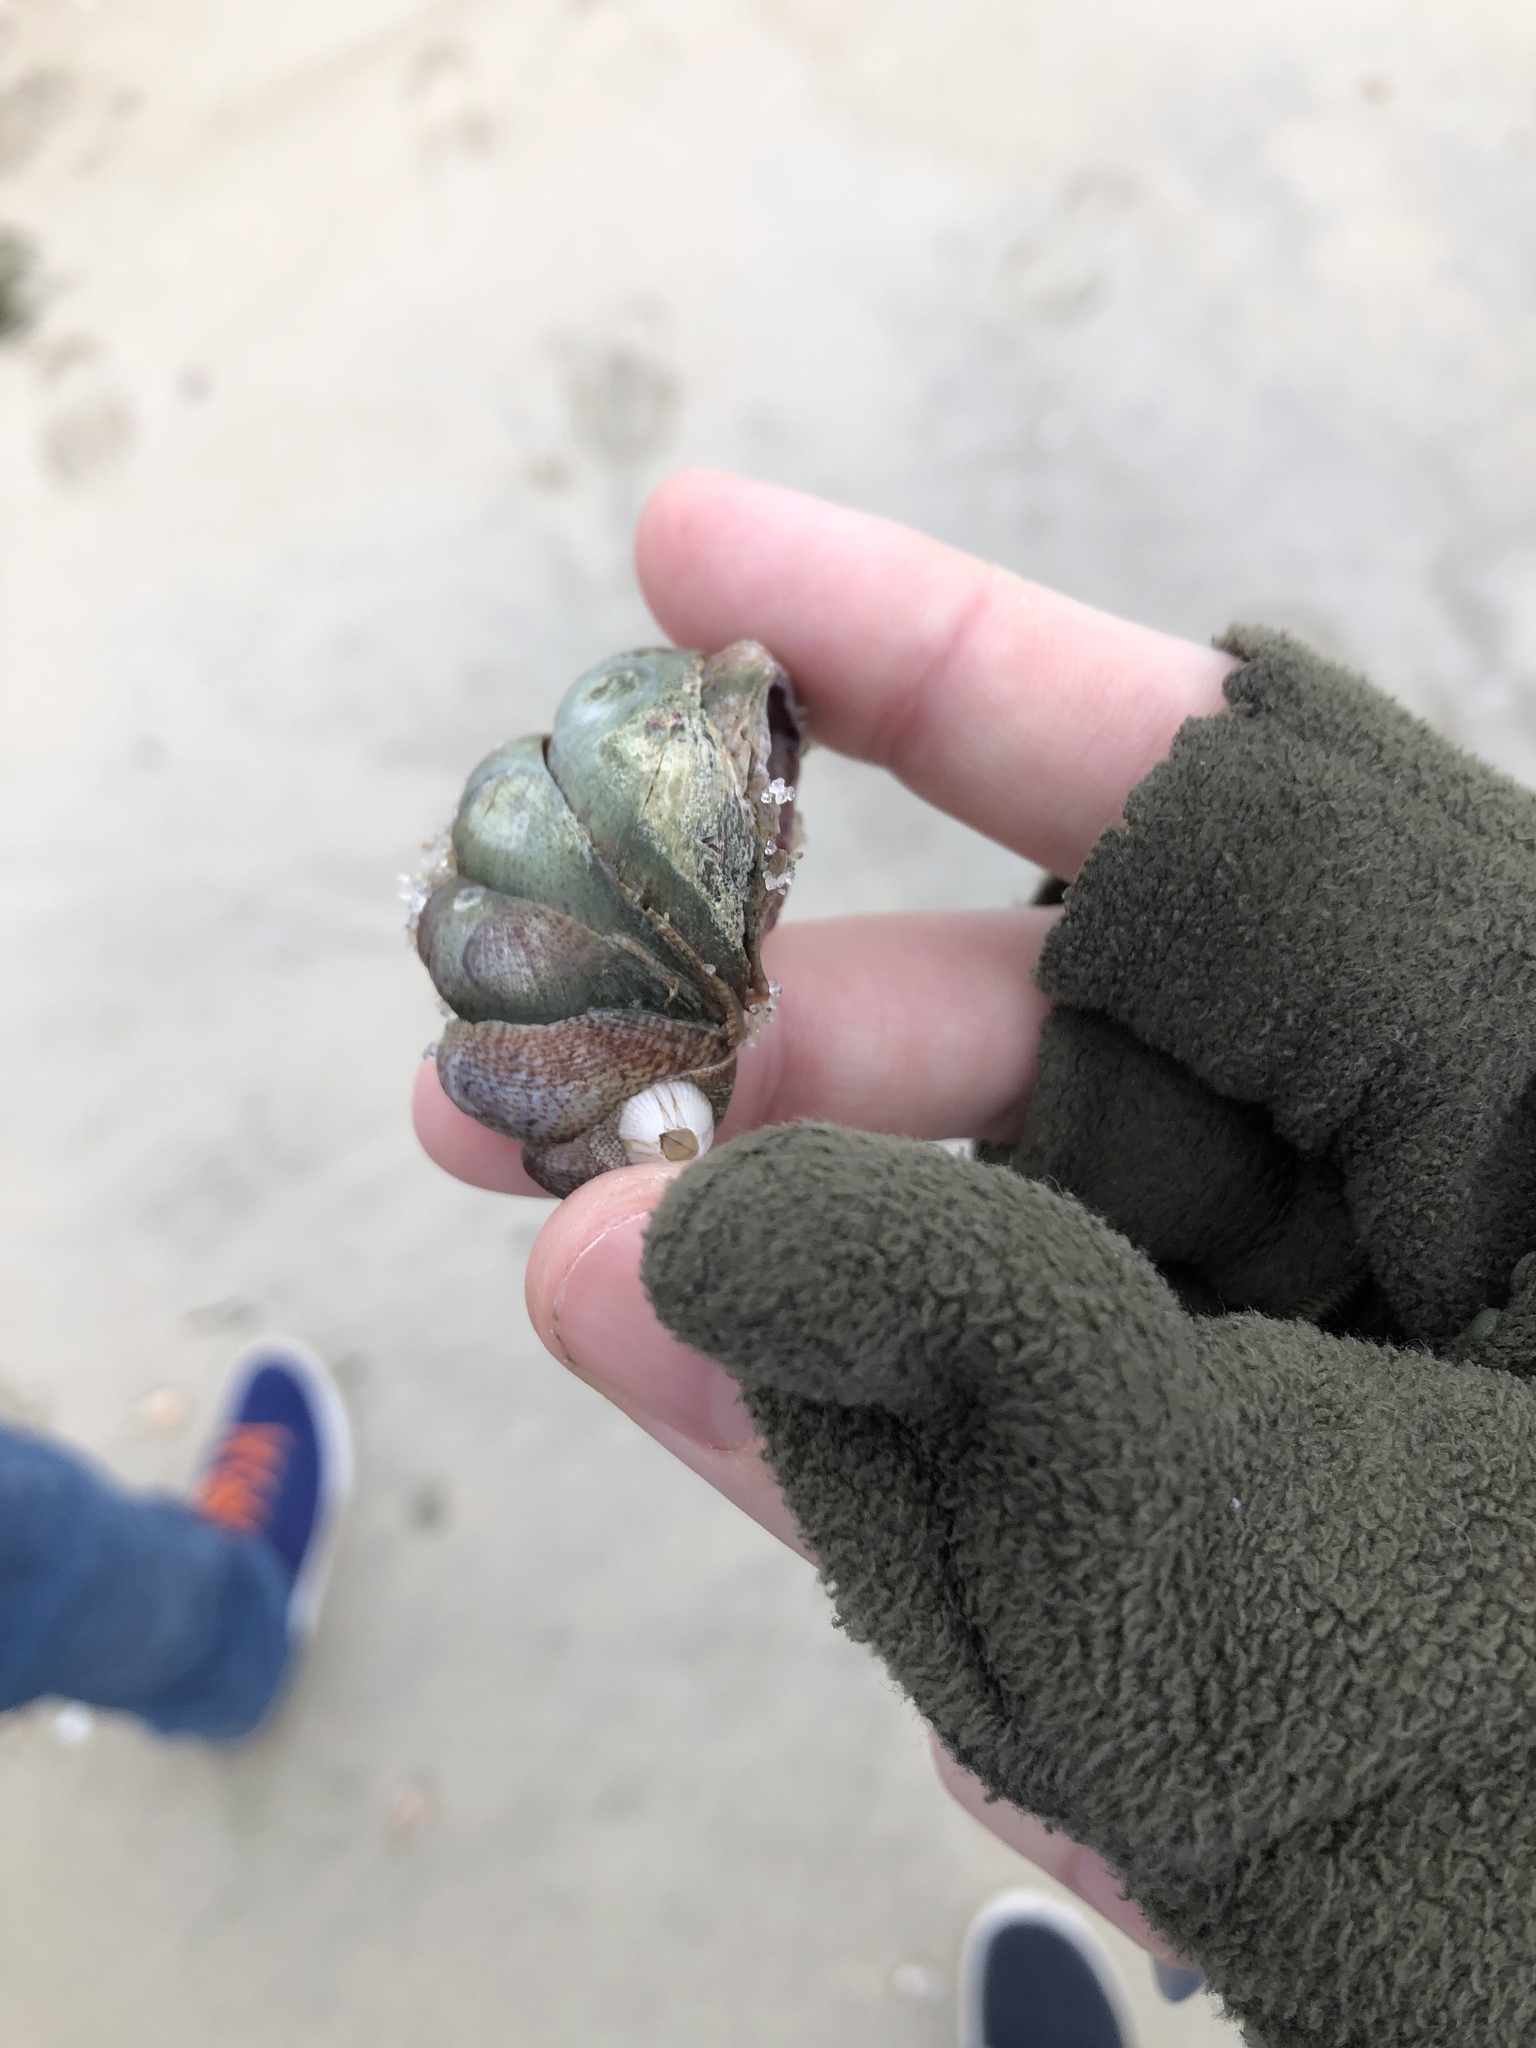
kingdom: Animalia
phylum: Mollusca
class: Gastropoda
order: Littorinimorpha
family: Calyptraeidae
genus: Crepidula
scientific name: Crepidula fornicata
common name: Slipper limpet
